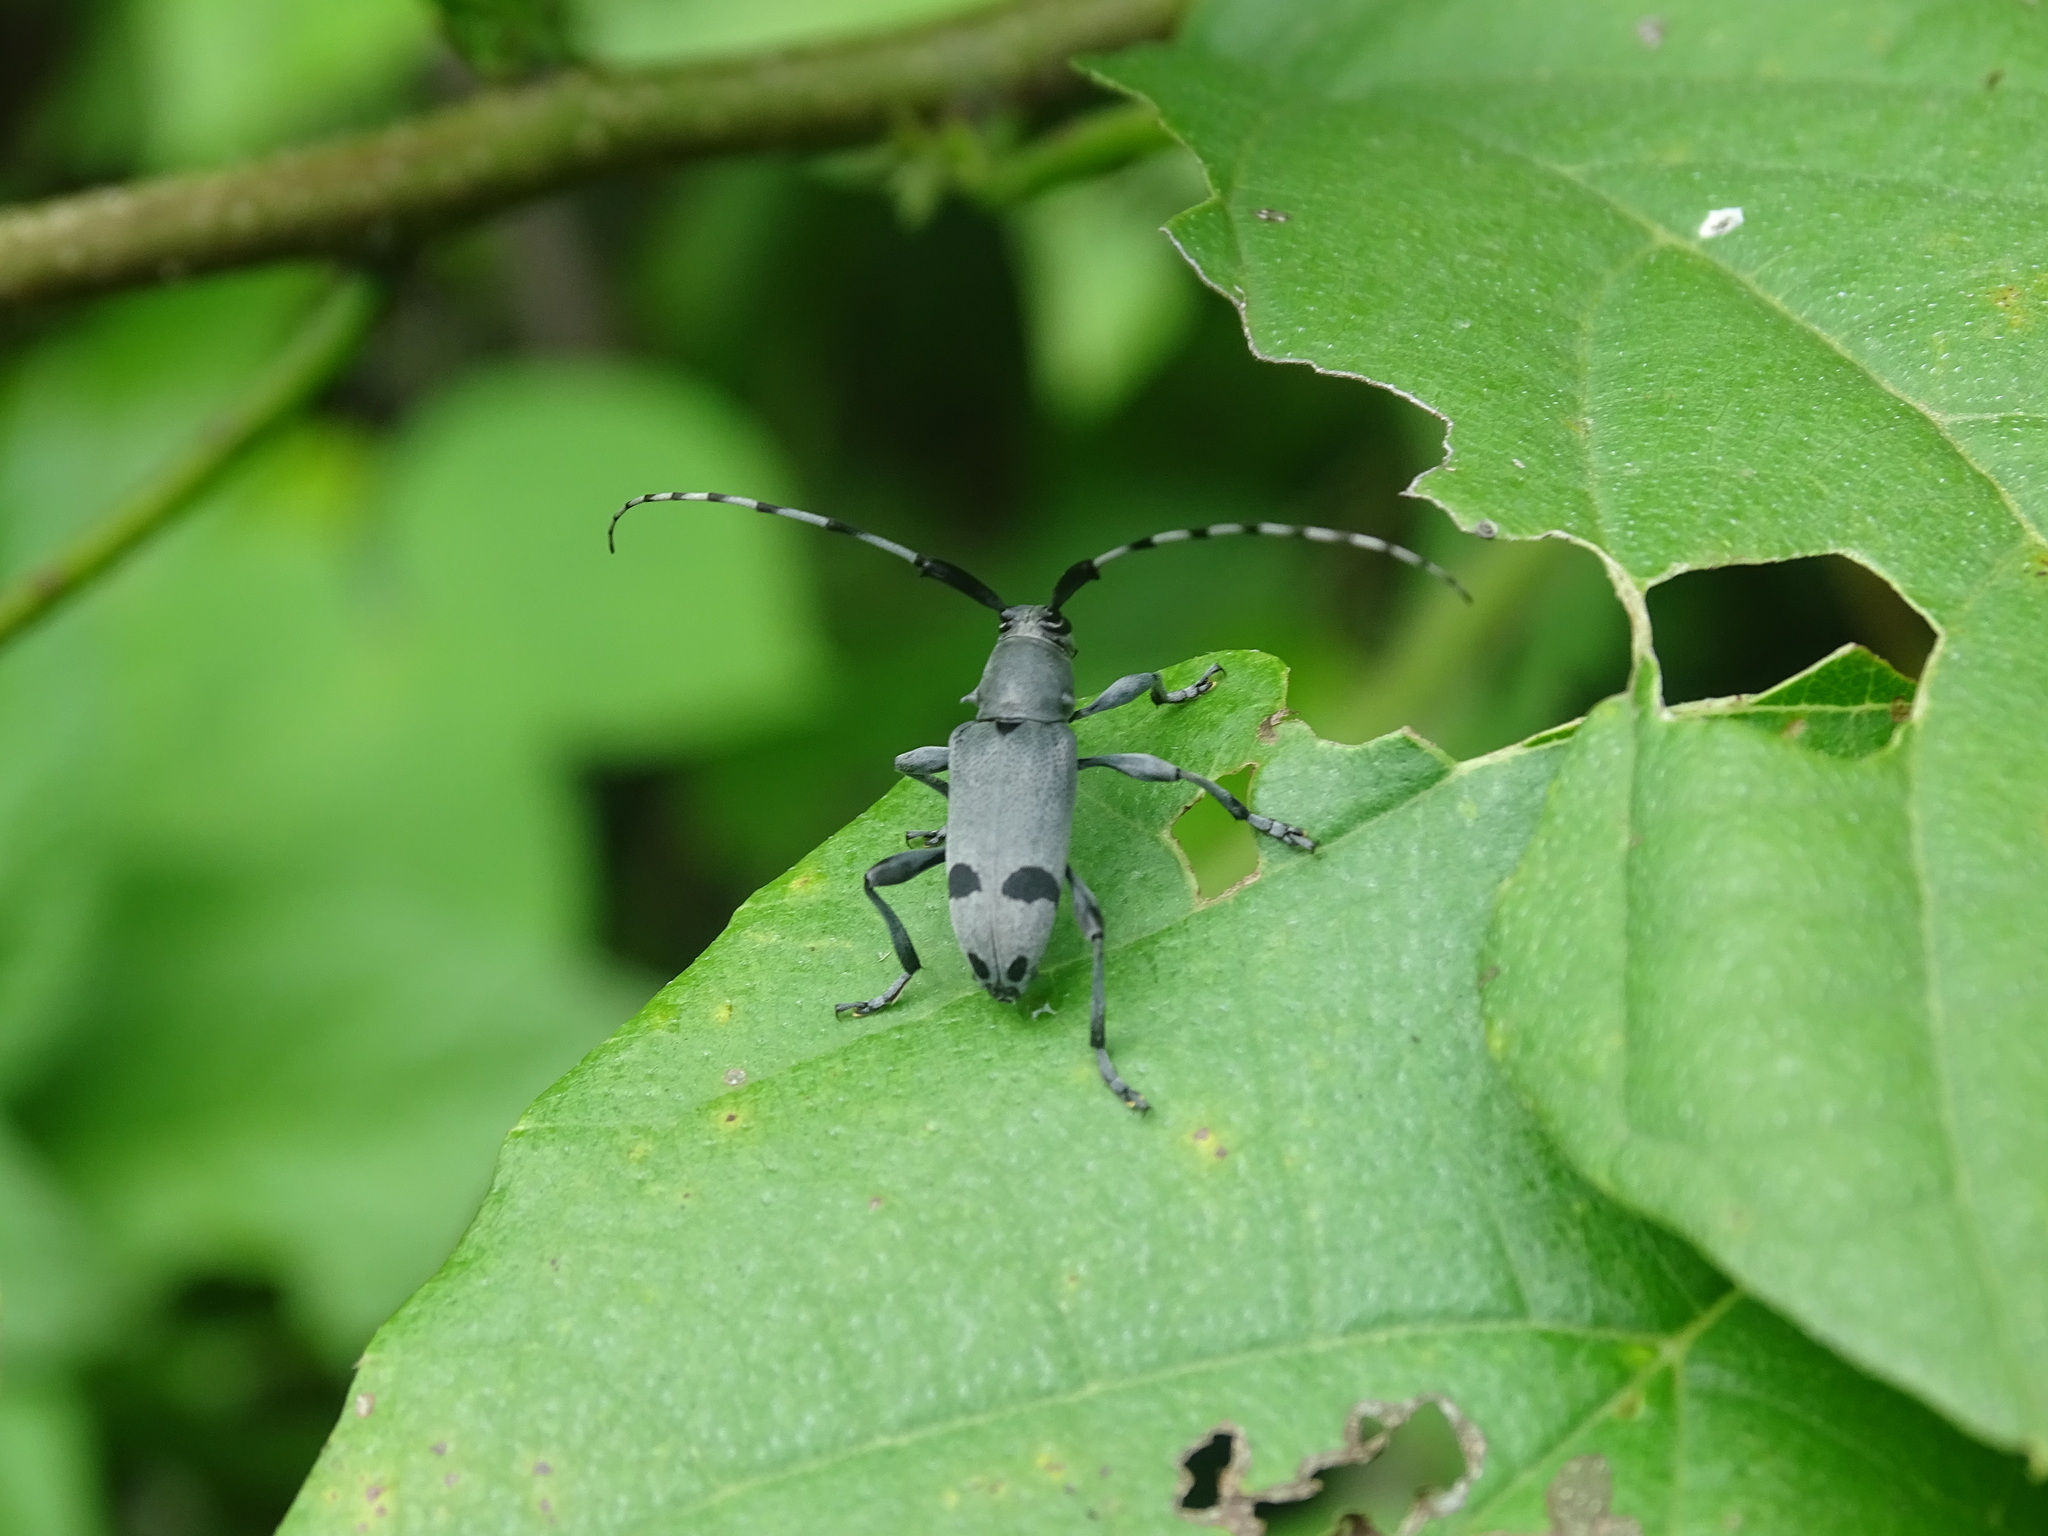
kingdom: Animalia
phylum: Arthropoda
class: Insecta
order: Coleoptera
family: Cerambycidae
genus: Canidia
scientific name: Canidia cincticornis
